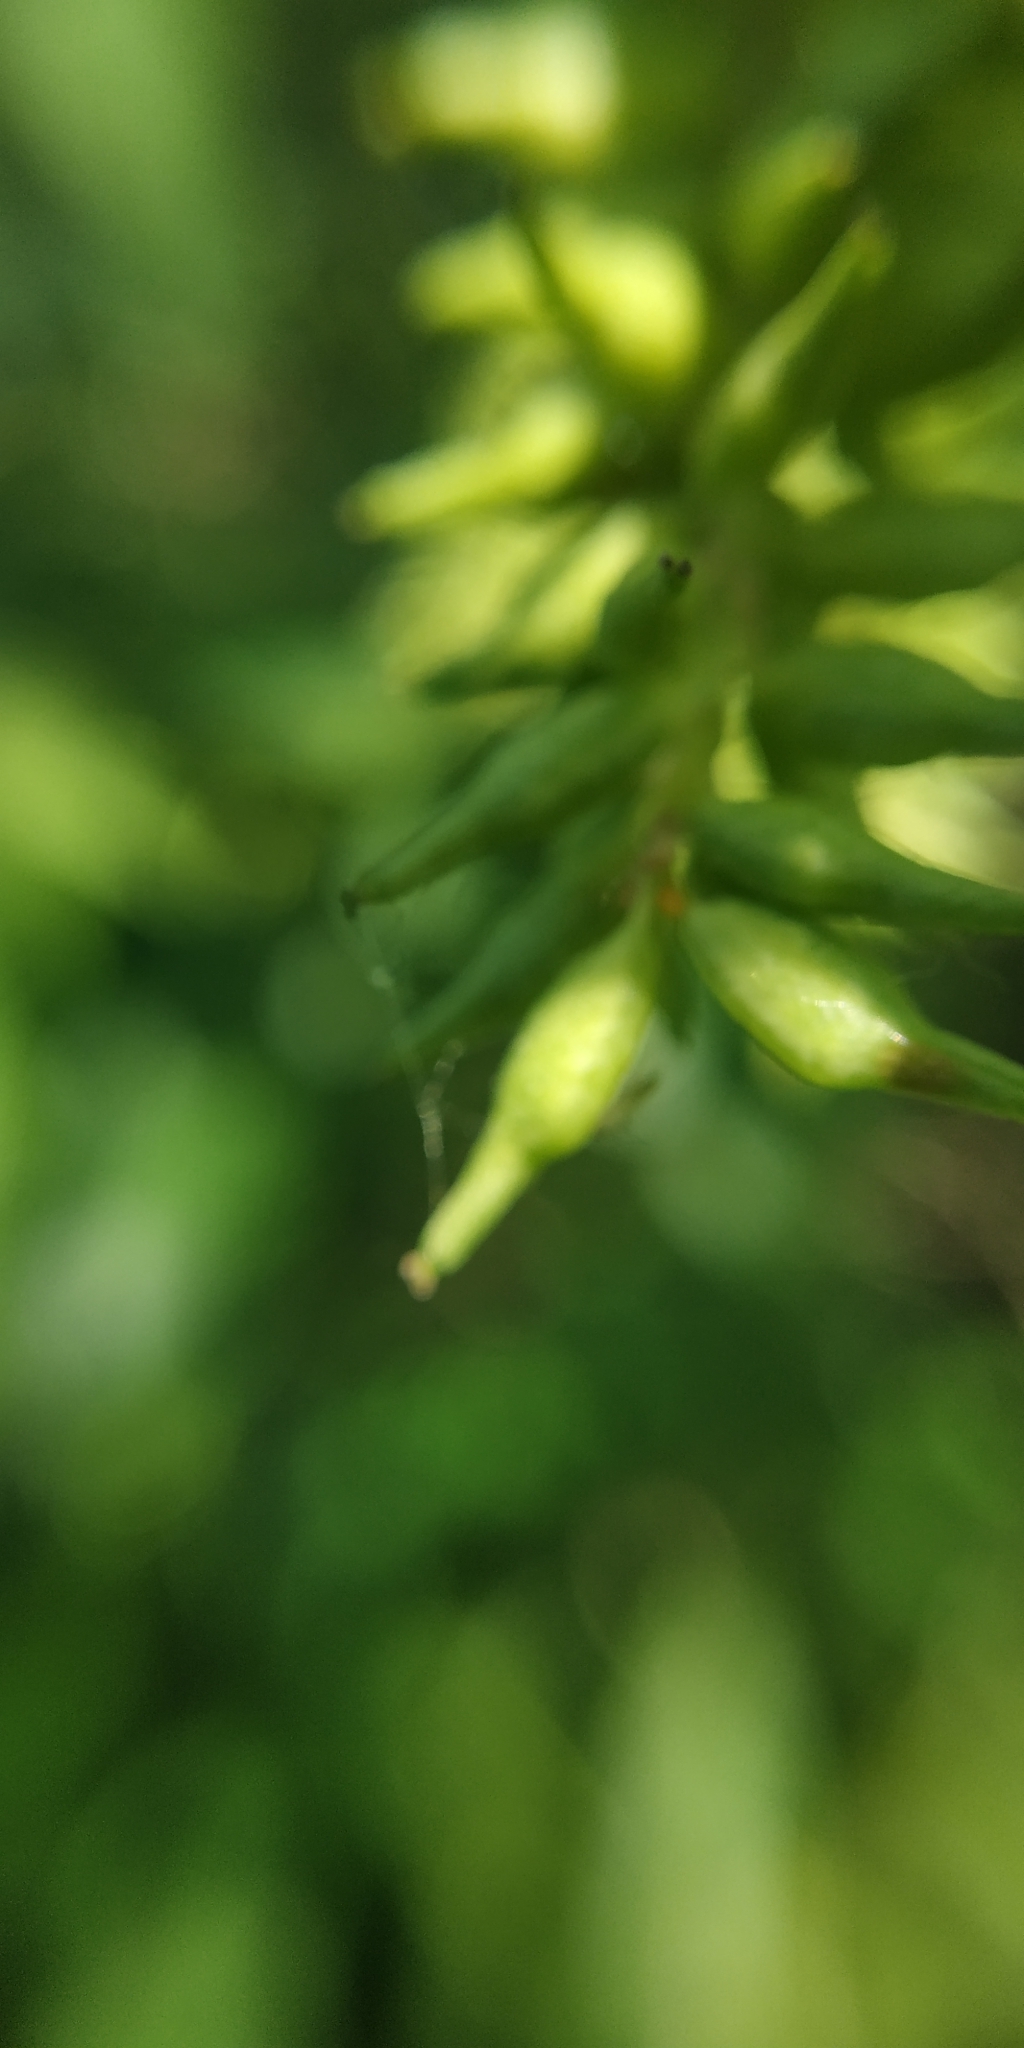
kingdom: Plantae
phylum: Tracheophyta
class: Magnoliopsida
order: Malpighiales
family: Salicaceae
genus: Salix
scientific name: Salix triandra
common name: Almond willow
